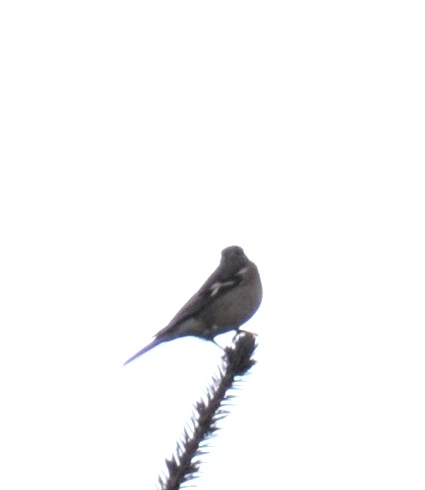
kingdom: Animalia
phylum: Chordata
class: Aves
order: Passeriformes
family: Fringillidae
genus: Fringilla
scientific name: Fringilla coelebs
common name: Common chaffinch
